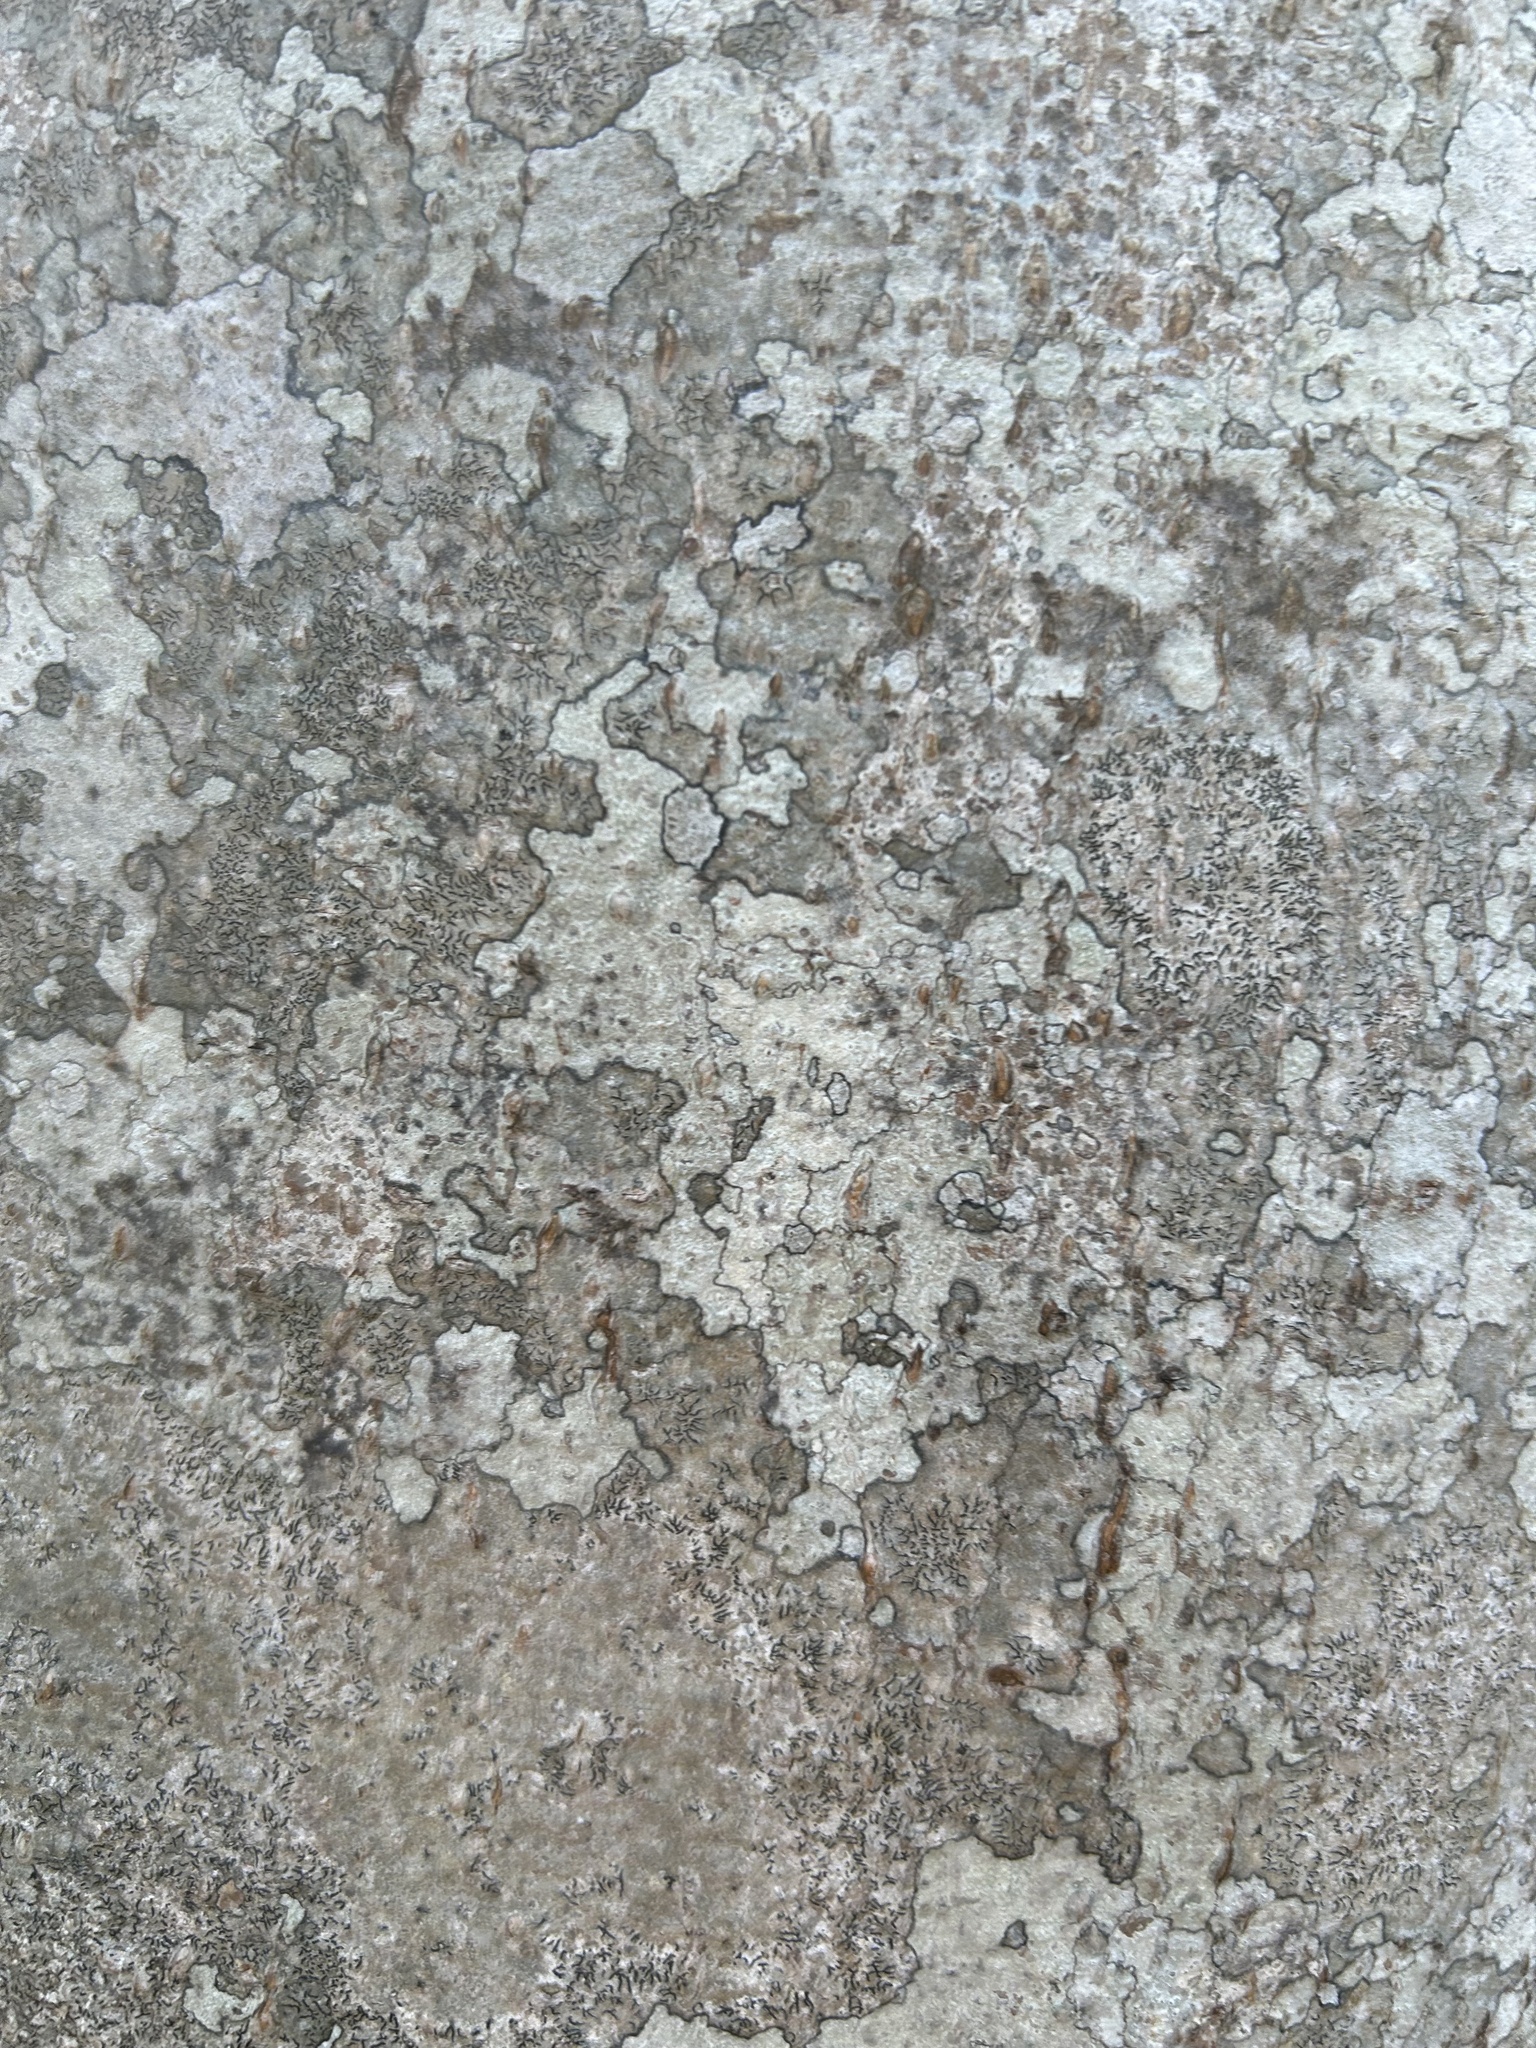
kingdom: Fungi
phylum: Ascomycota
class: Lecanoromycetes
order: Ostropales
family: Graphidaceae
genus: Graphis
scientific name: Graphis scripta
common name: Script lichen
